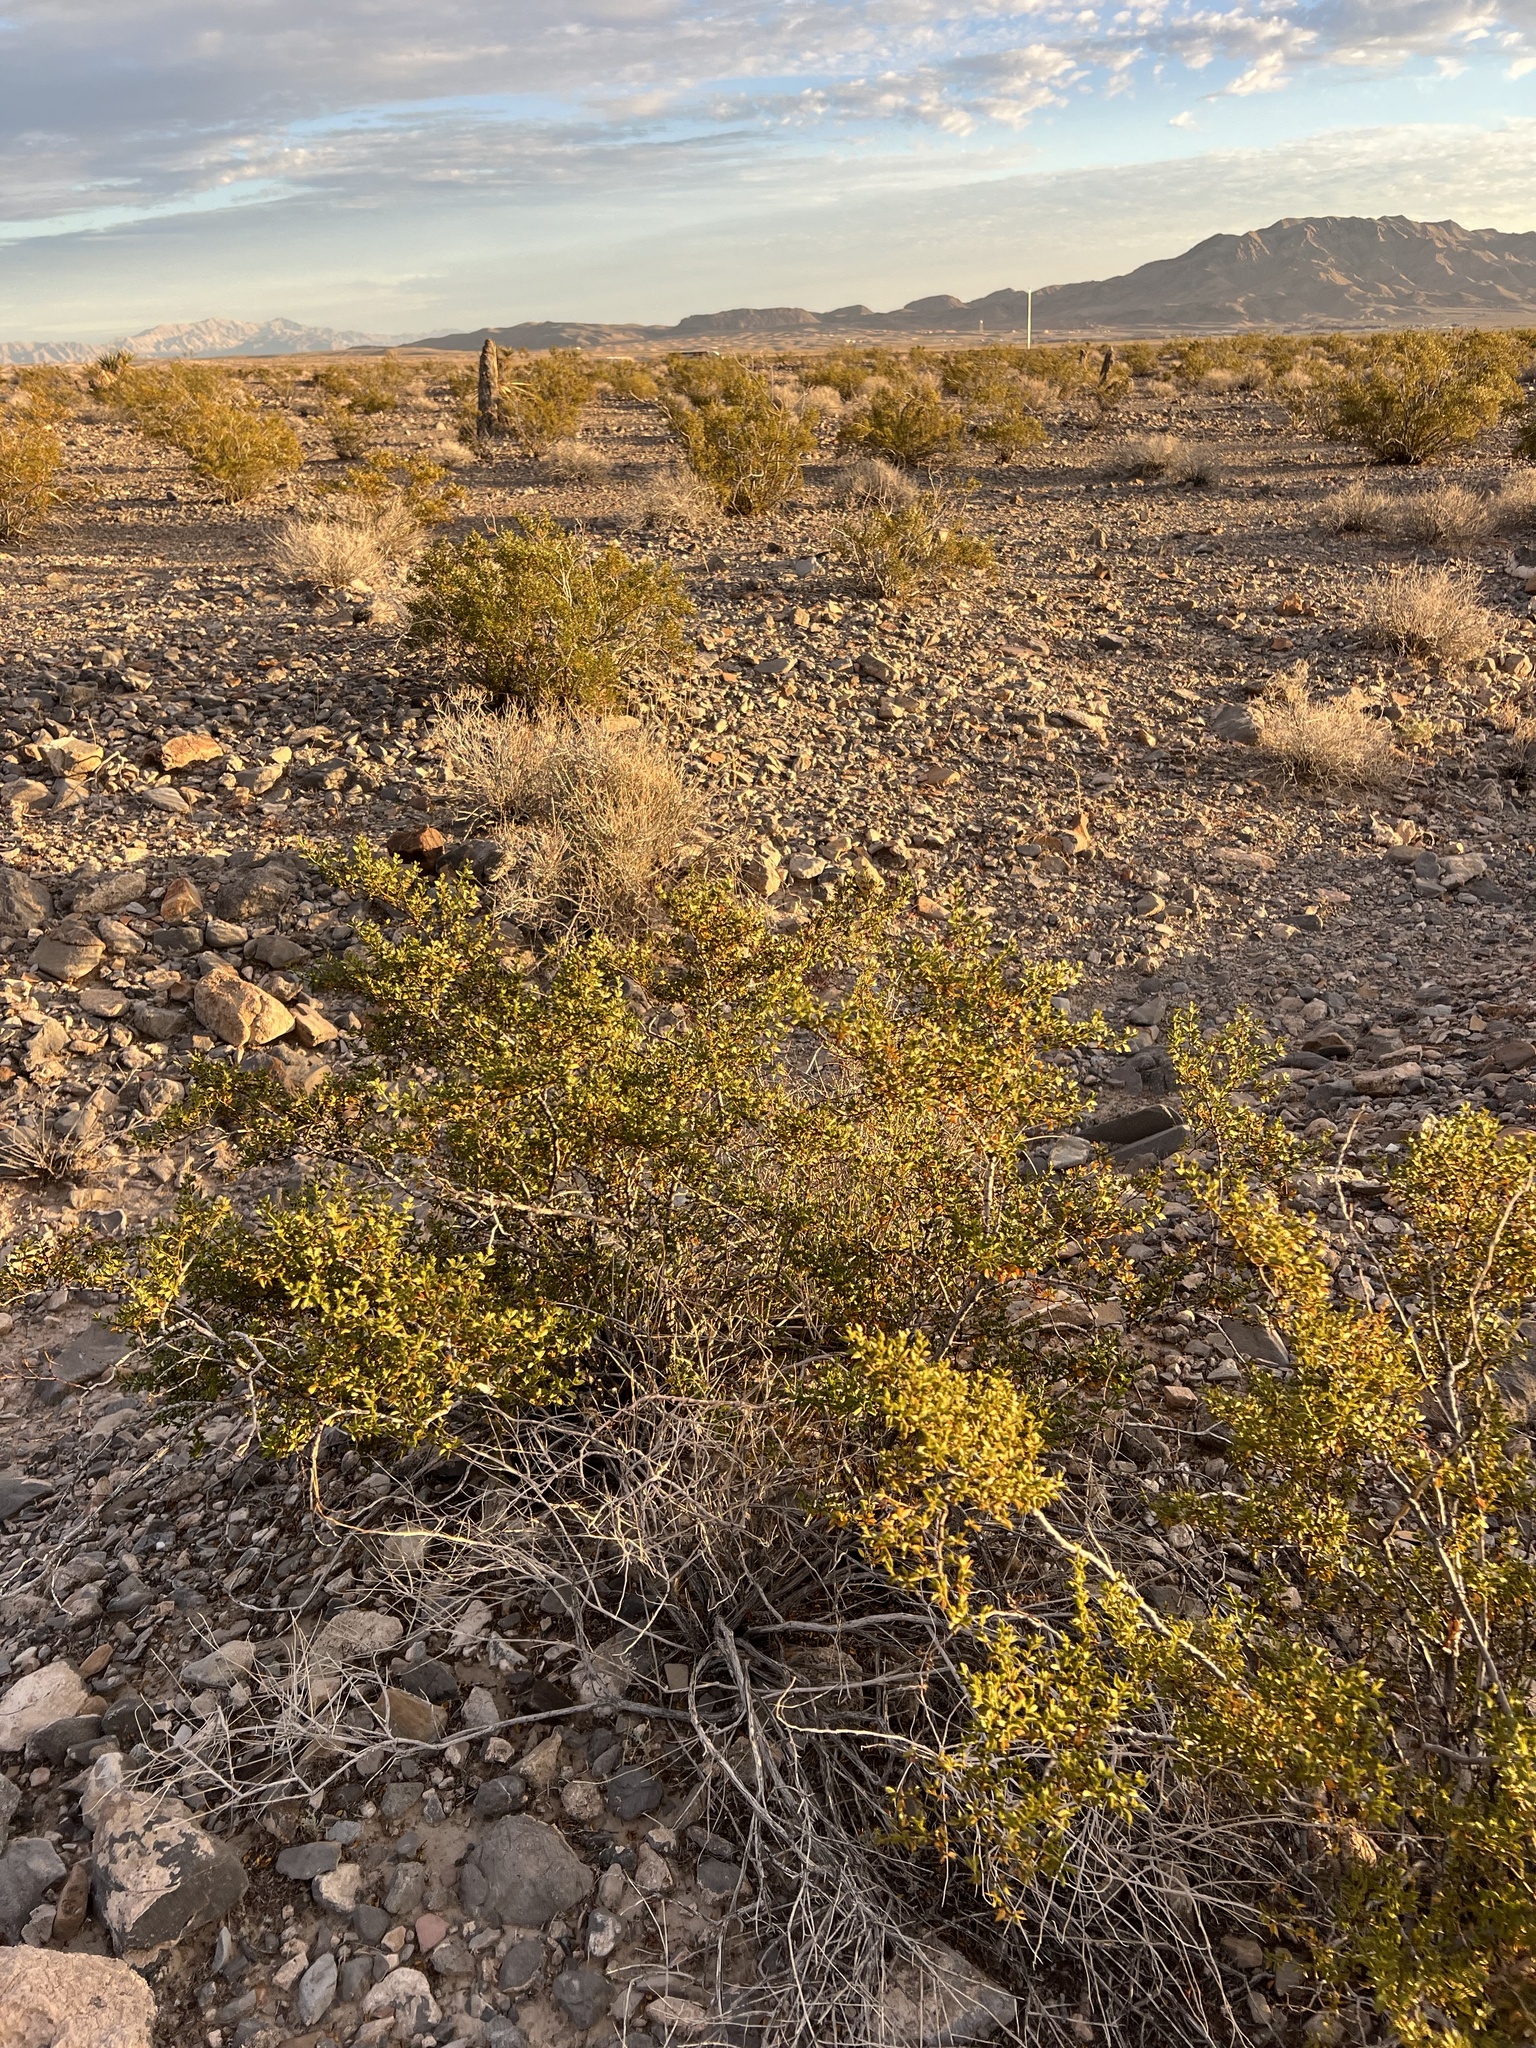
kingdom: Plantae
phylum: Tracheophyta
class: Magnoliopsida
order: Zygophyllales
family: Zygophyllaceae
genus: Larrea
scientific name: Larrea tridentata
